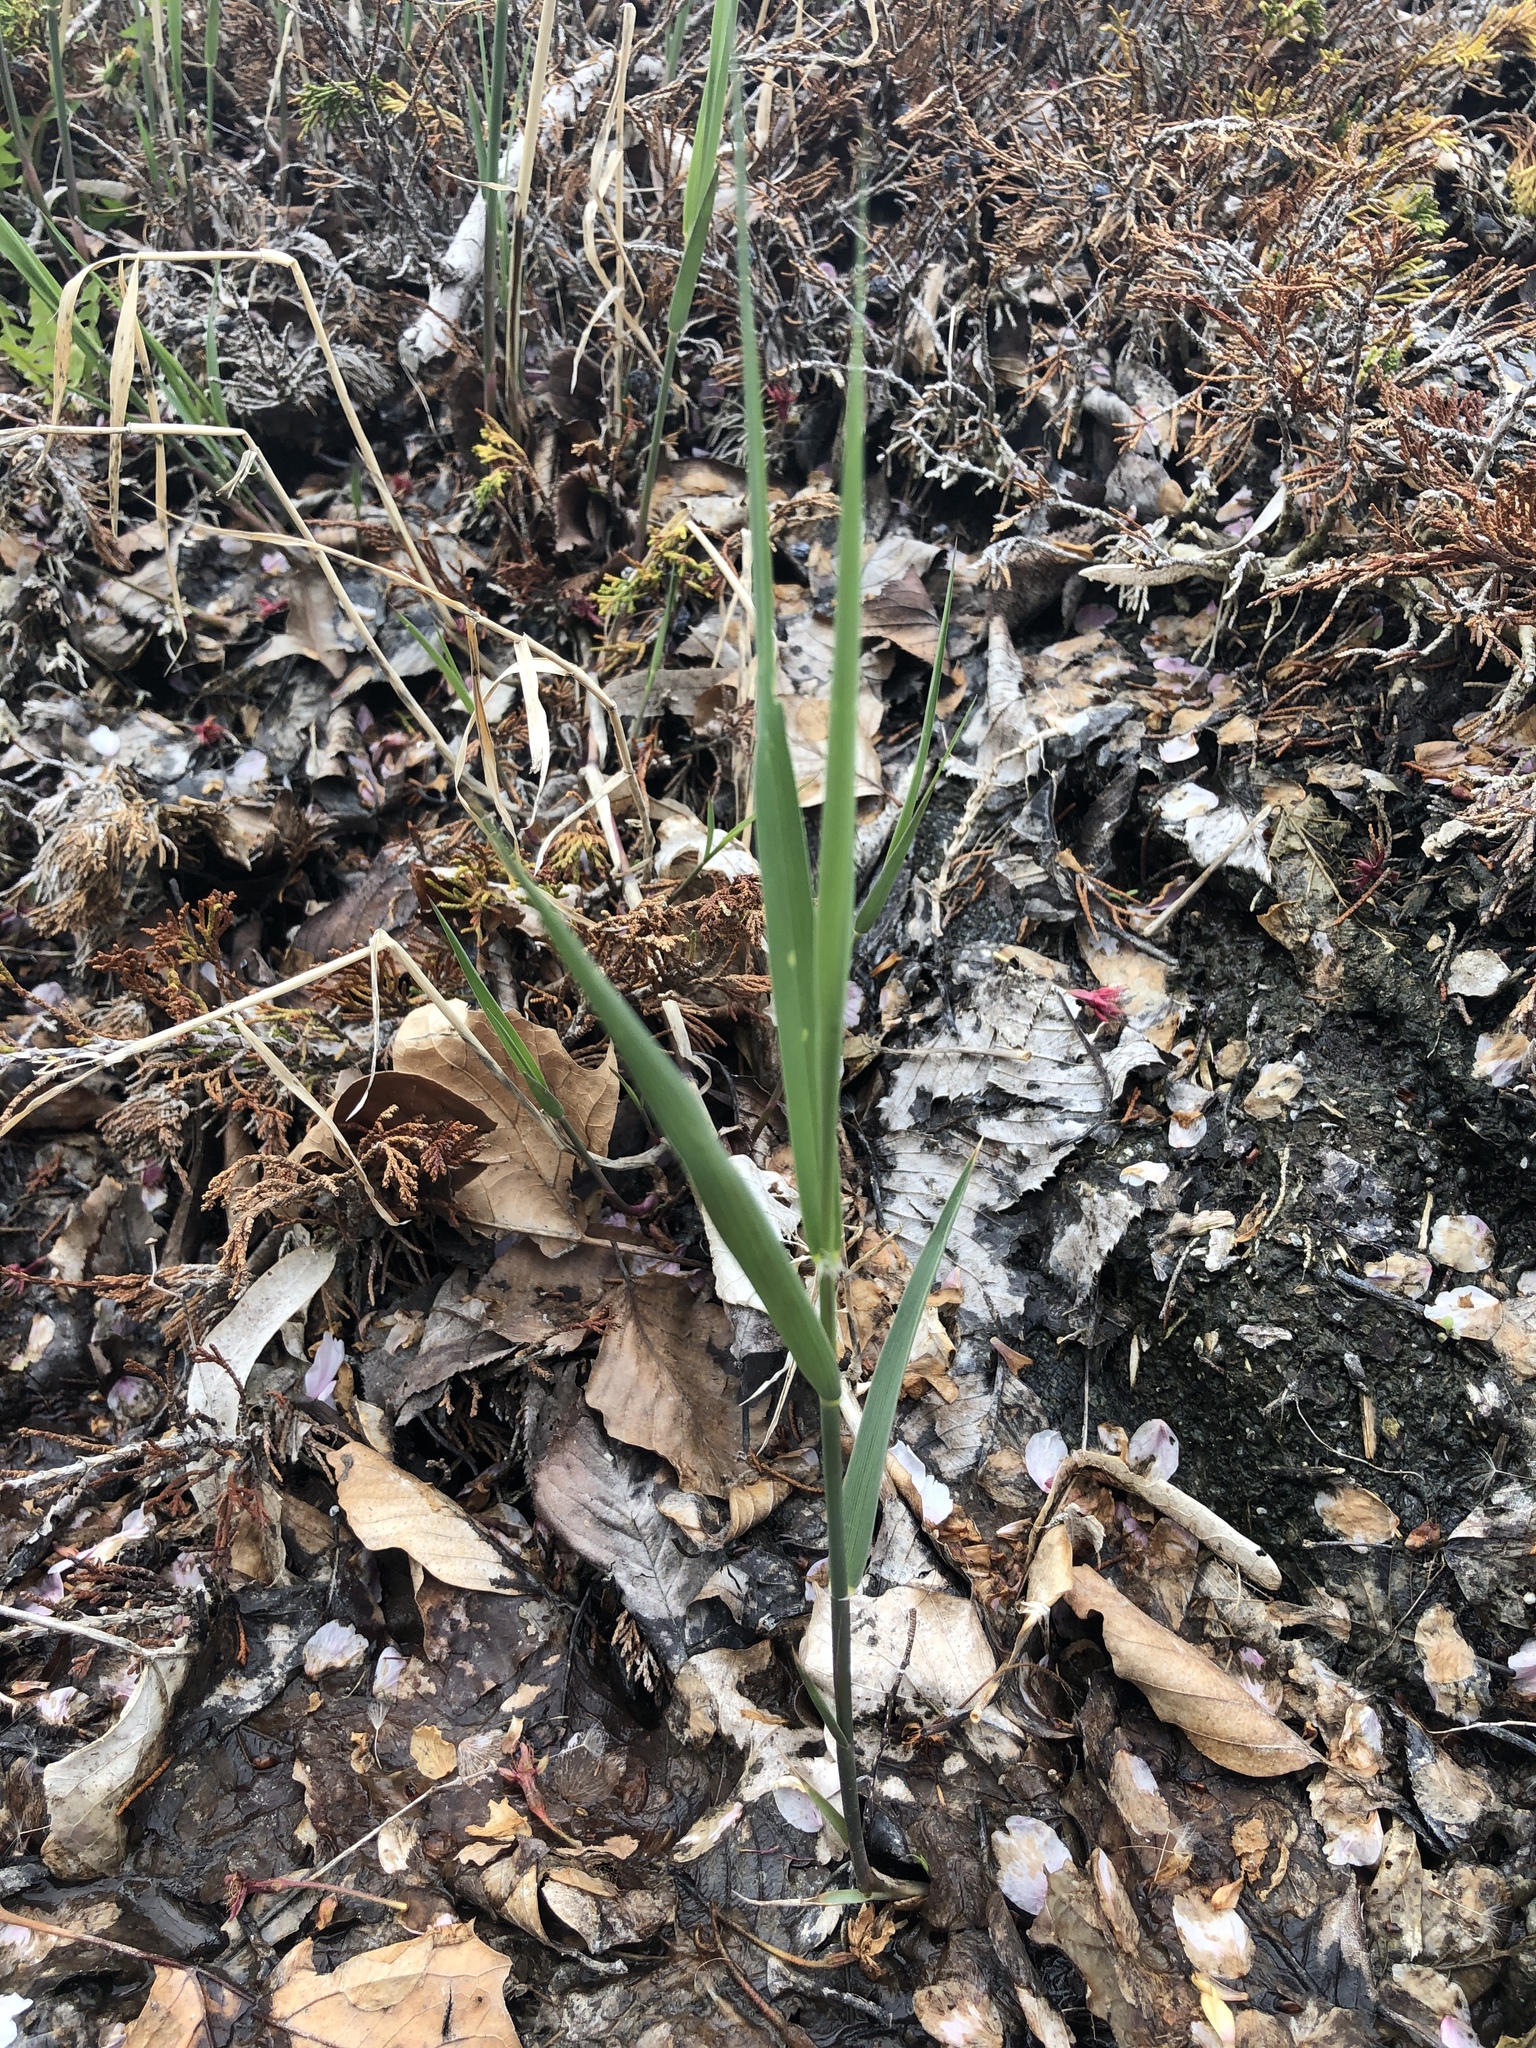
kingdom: Plantae
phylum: Tracheophyta
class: Liliopsida
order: Poales
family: Poaceae
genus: Phragmites
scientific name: Phragmites australis
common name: Common reed
